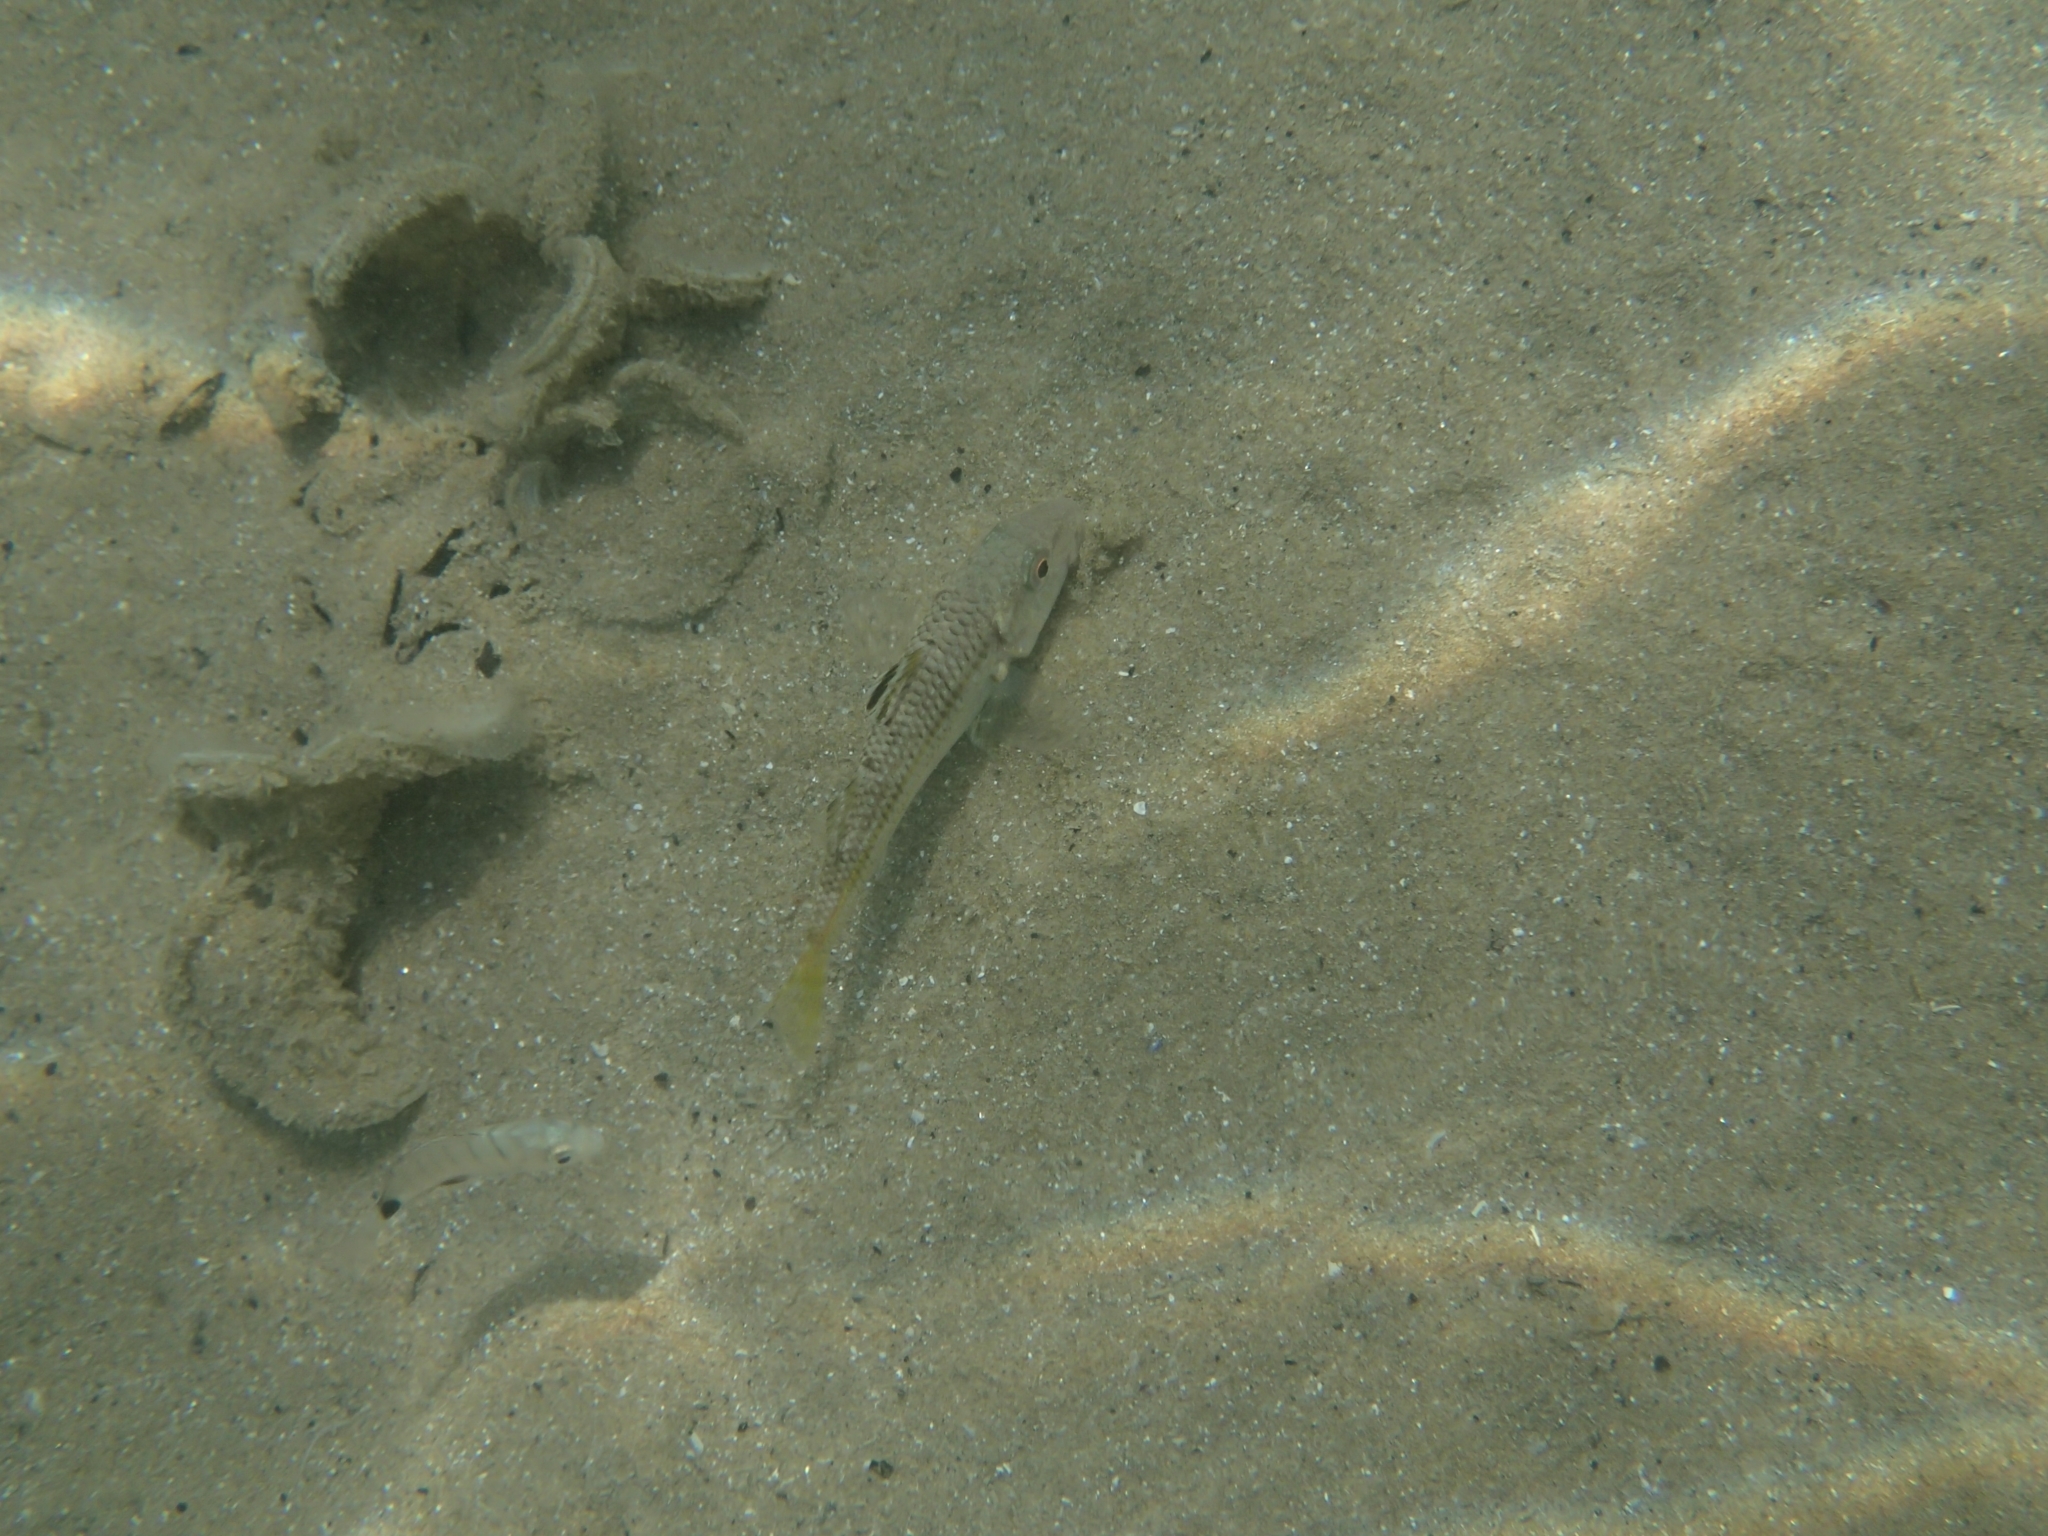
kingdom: Animalia
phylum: Chordata
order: Perciformes
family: Mullidae
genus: Mullus
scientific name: Mullus surmuletus
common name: Red mullet
